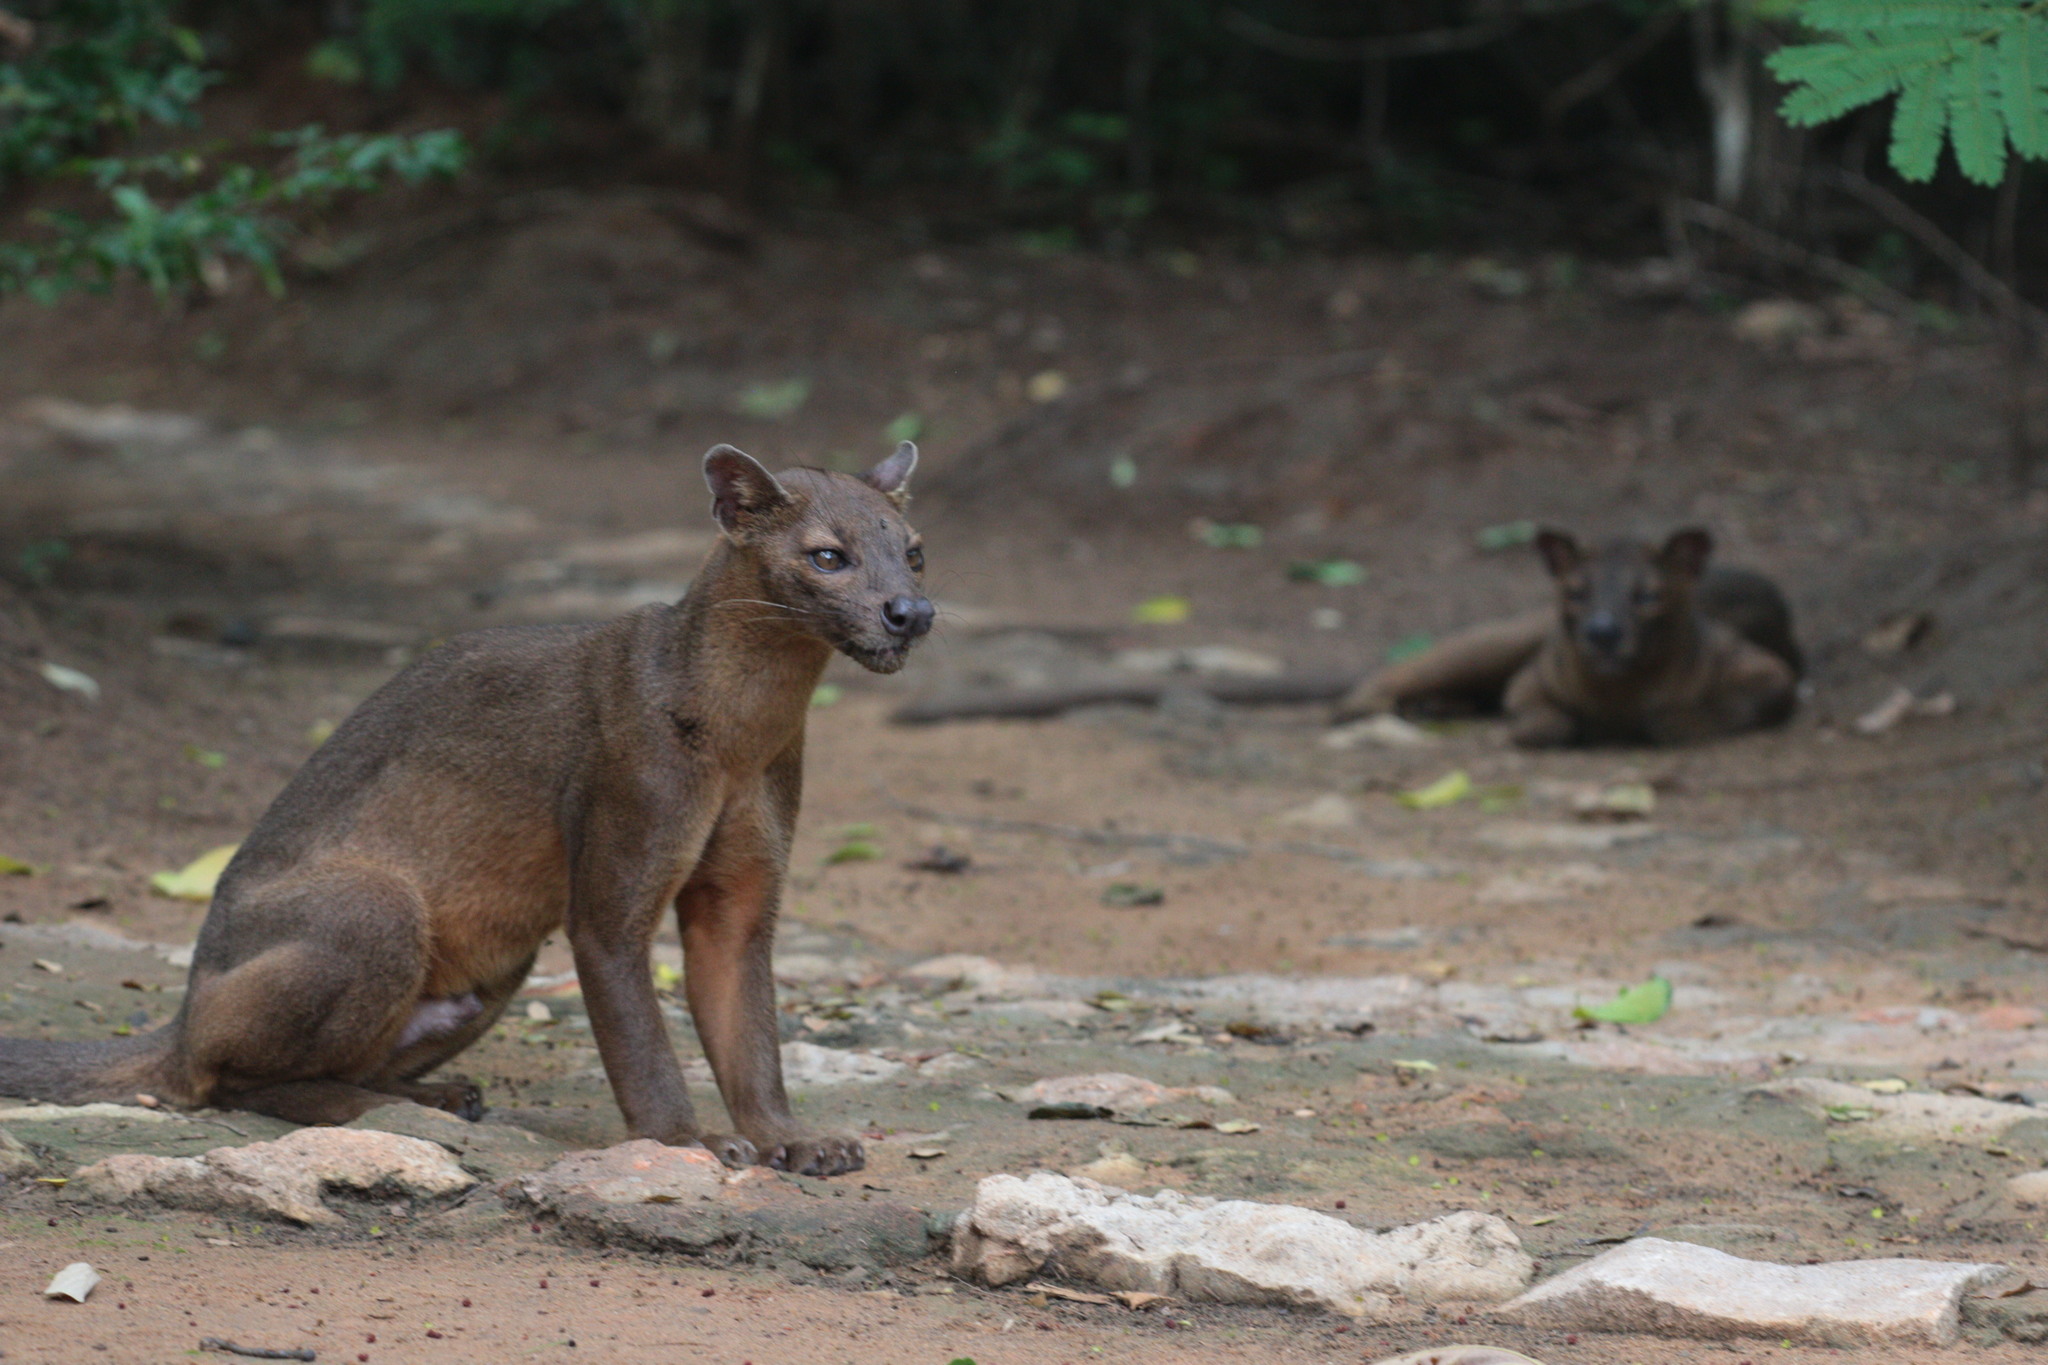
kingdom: Animalia
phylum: Chordata
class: Mammalia
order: Carnivora
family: Eupleridae
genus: Cryptoprocta
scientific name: Cryptoprocta ferox
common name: Fossa
